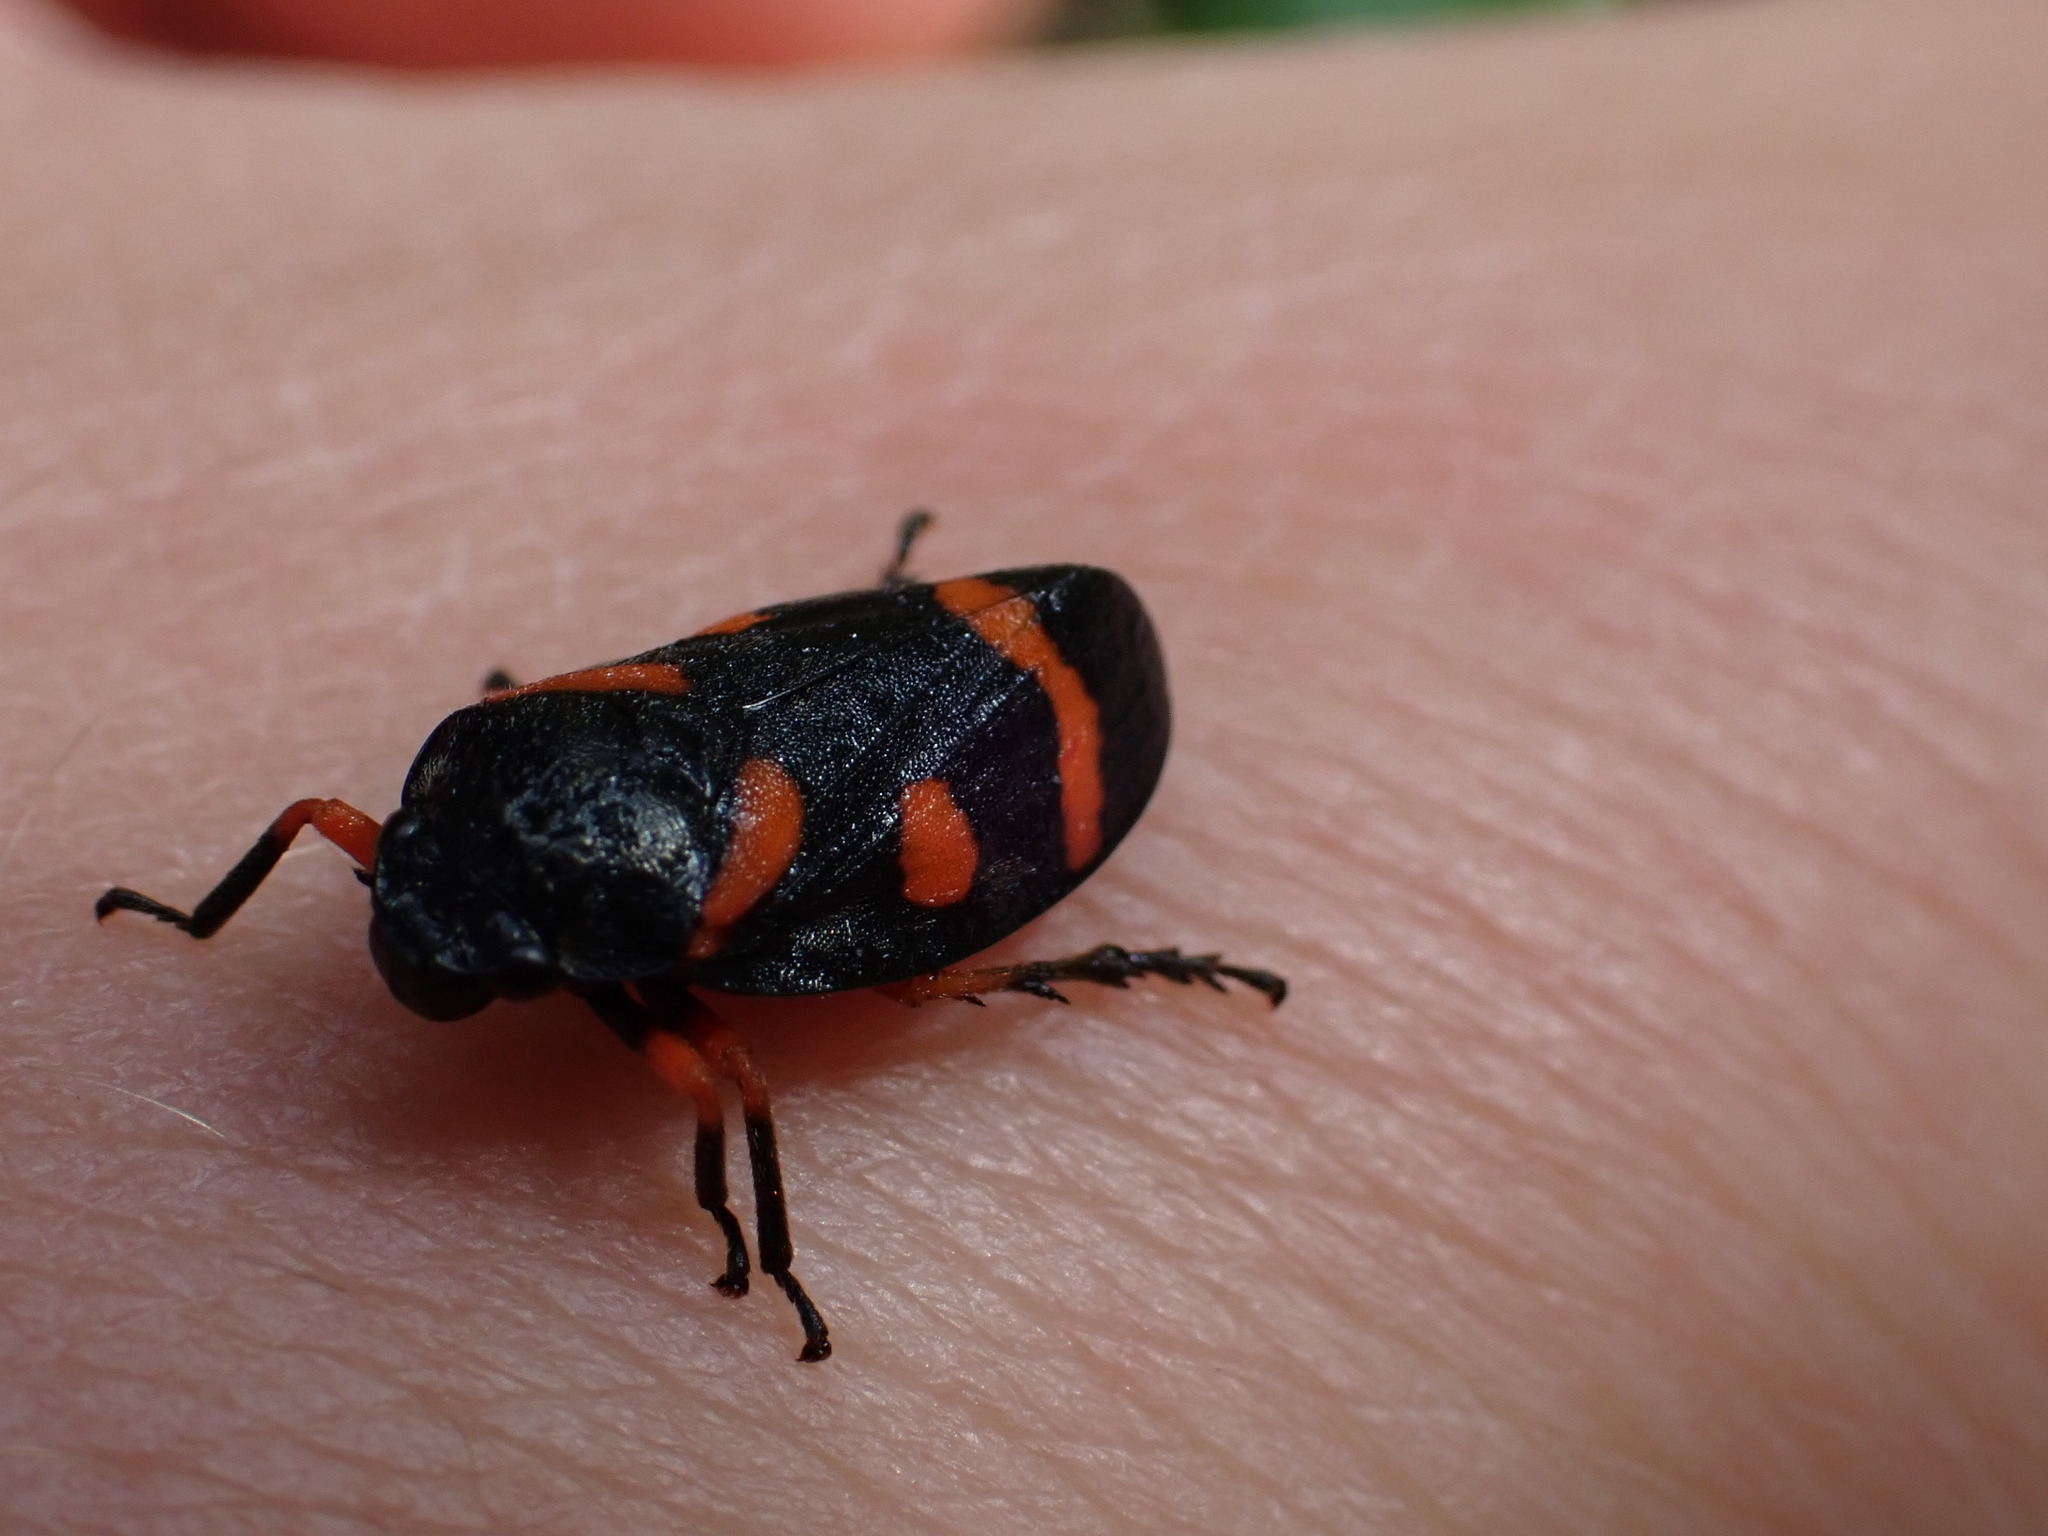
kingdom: Animalia
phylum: Arthropoda
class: Insecta
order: Hemiptera
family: Cercopidae
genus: Cercopis
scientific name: Cercopis intermedia
